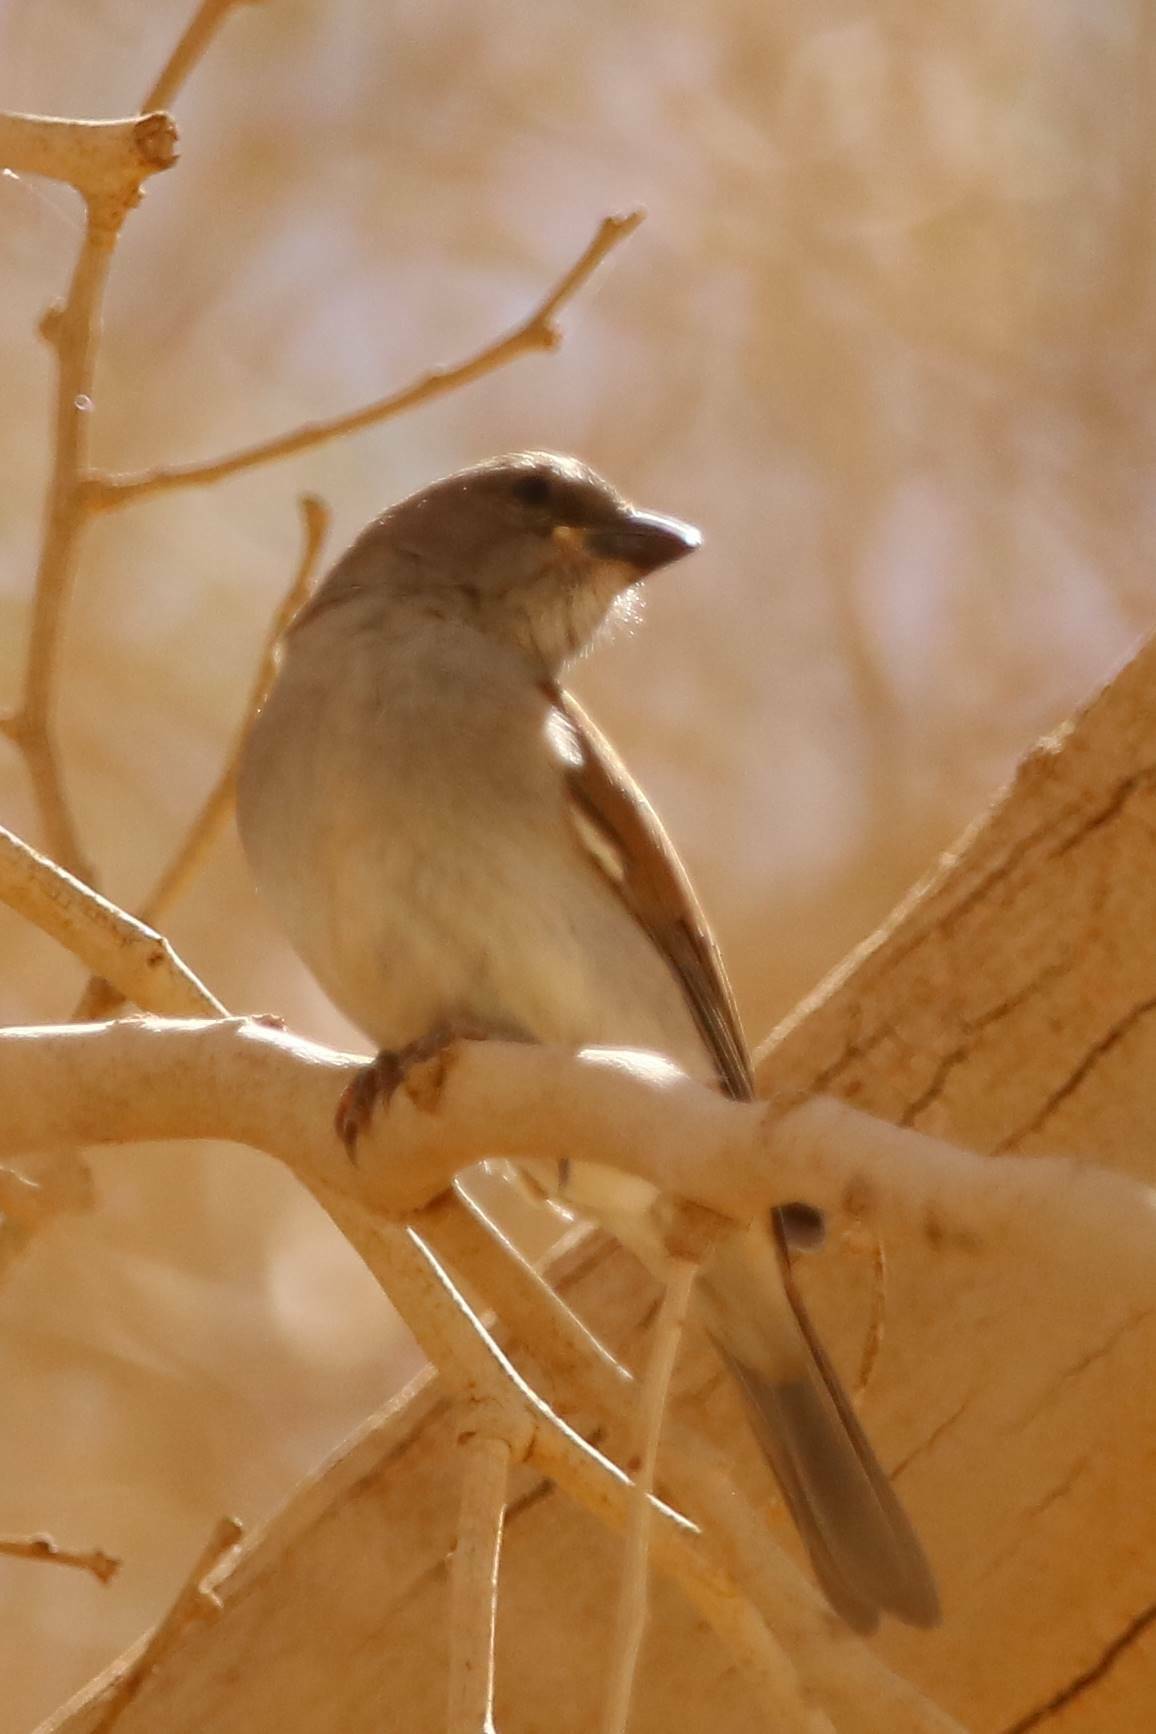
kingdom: Animalia
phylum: Chordata
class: Aves
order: Passeriformes
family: Passeridae
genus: Passer
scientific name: Passer griseus
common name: Northern grey-headed sparrow
